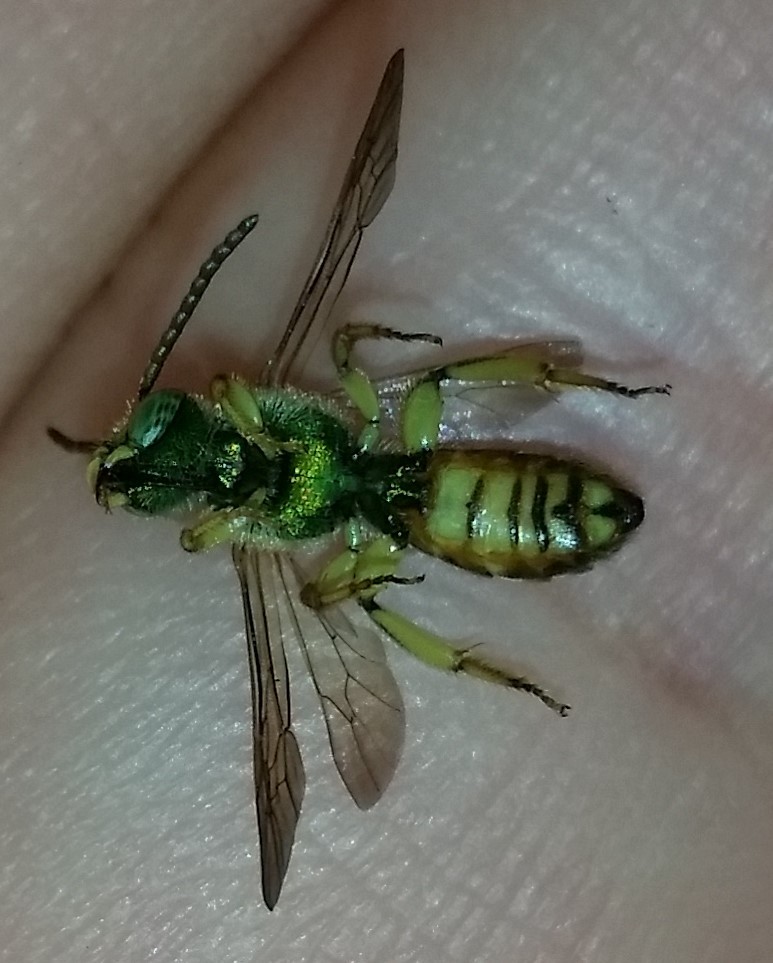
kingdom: Animalia
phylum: Arthropoda
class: Insecta
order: Hymenoptera
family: Halictidae
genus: Agapostemon
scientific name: Agapostemon sericeus
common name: Silky striped sweat bee
